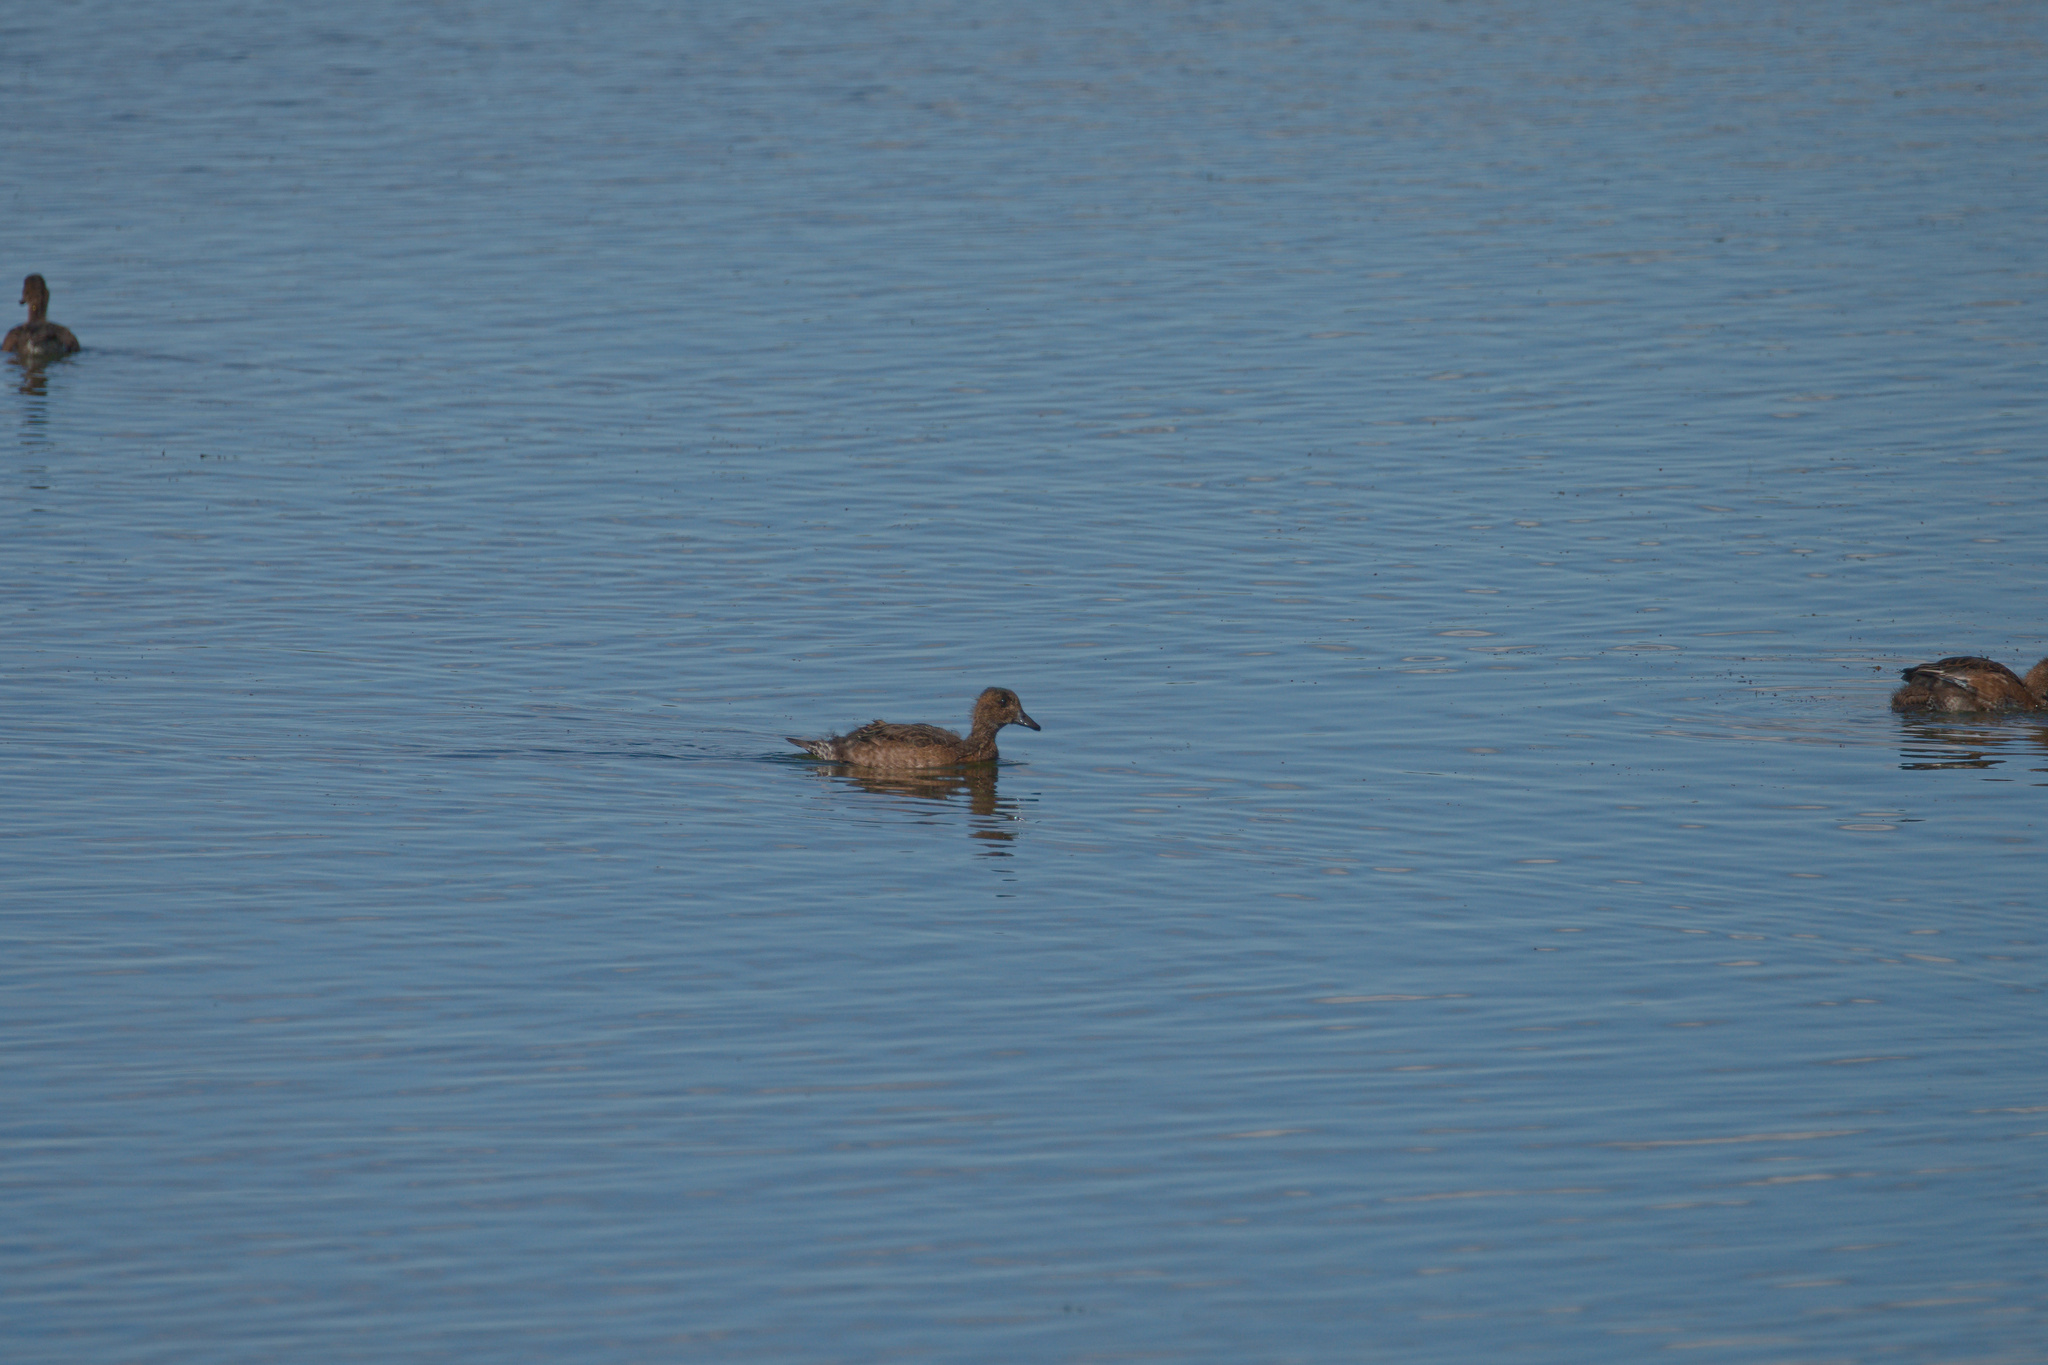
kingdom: Animalia
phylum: Chordata
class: Aves
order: Anseriformes
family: Anatidae
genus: Mareca
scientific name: Mareca penelope
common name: Eurasian wigeon
